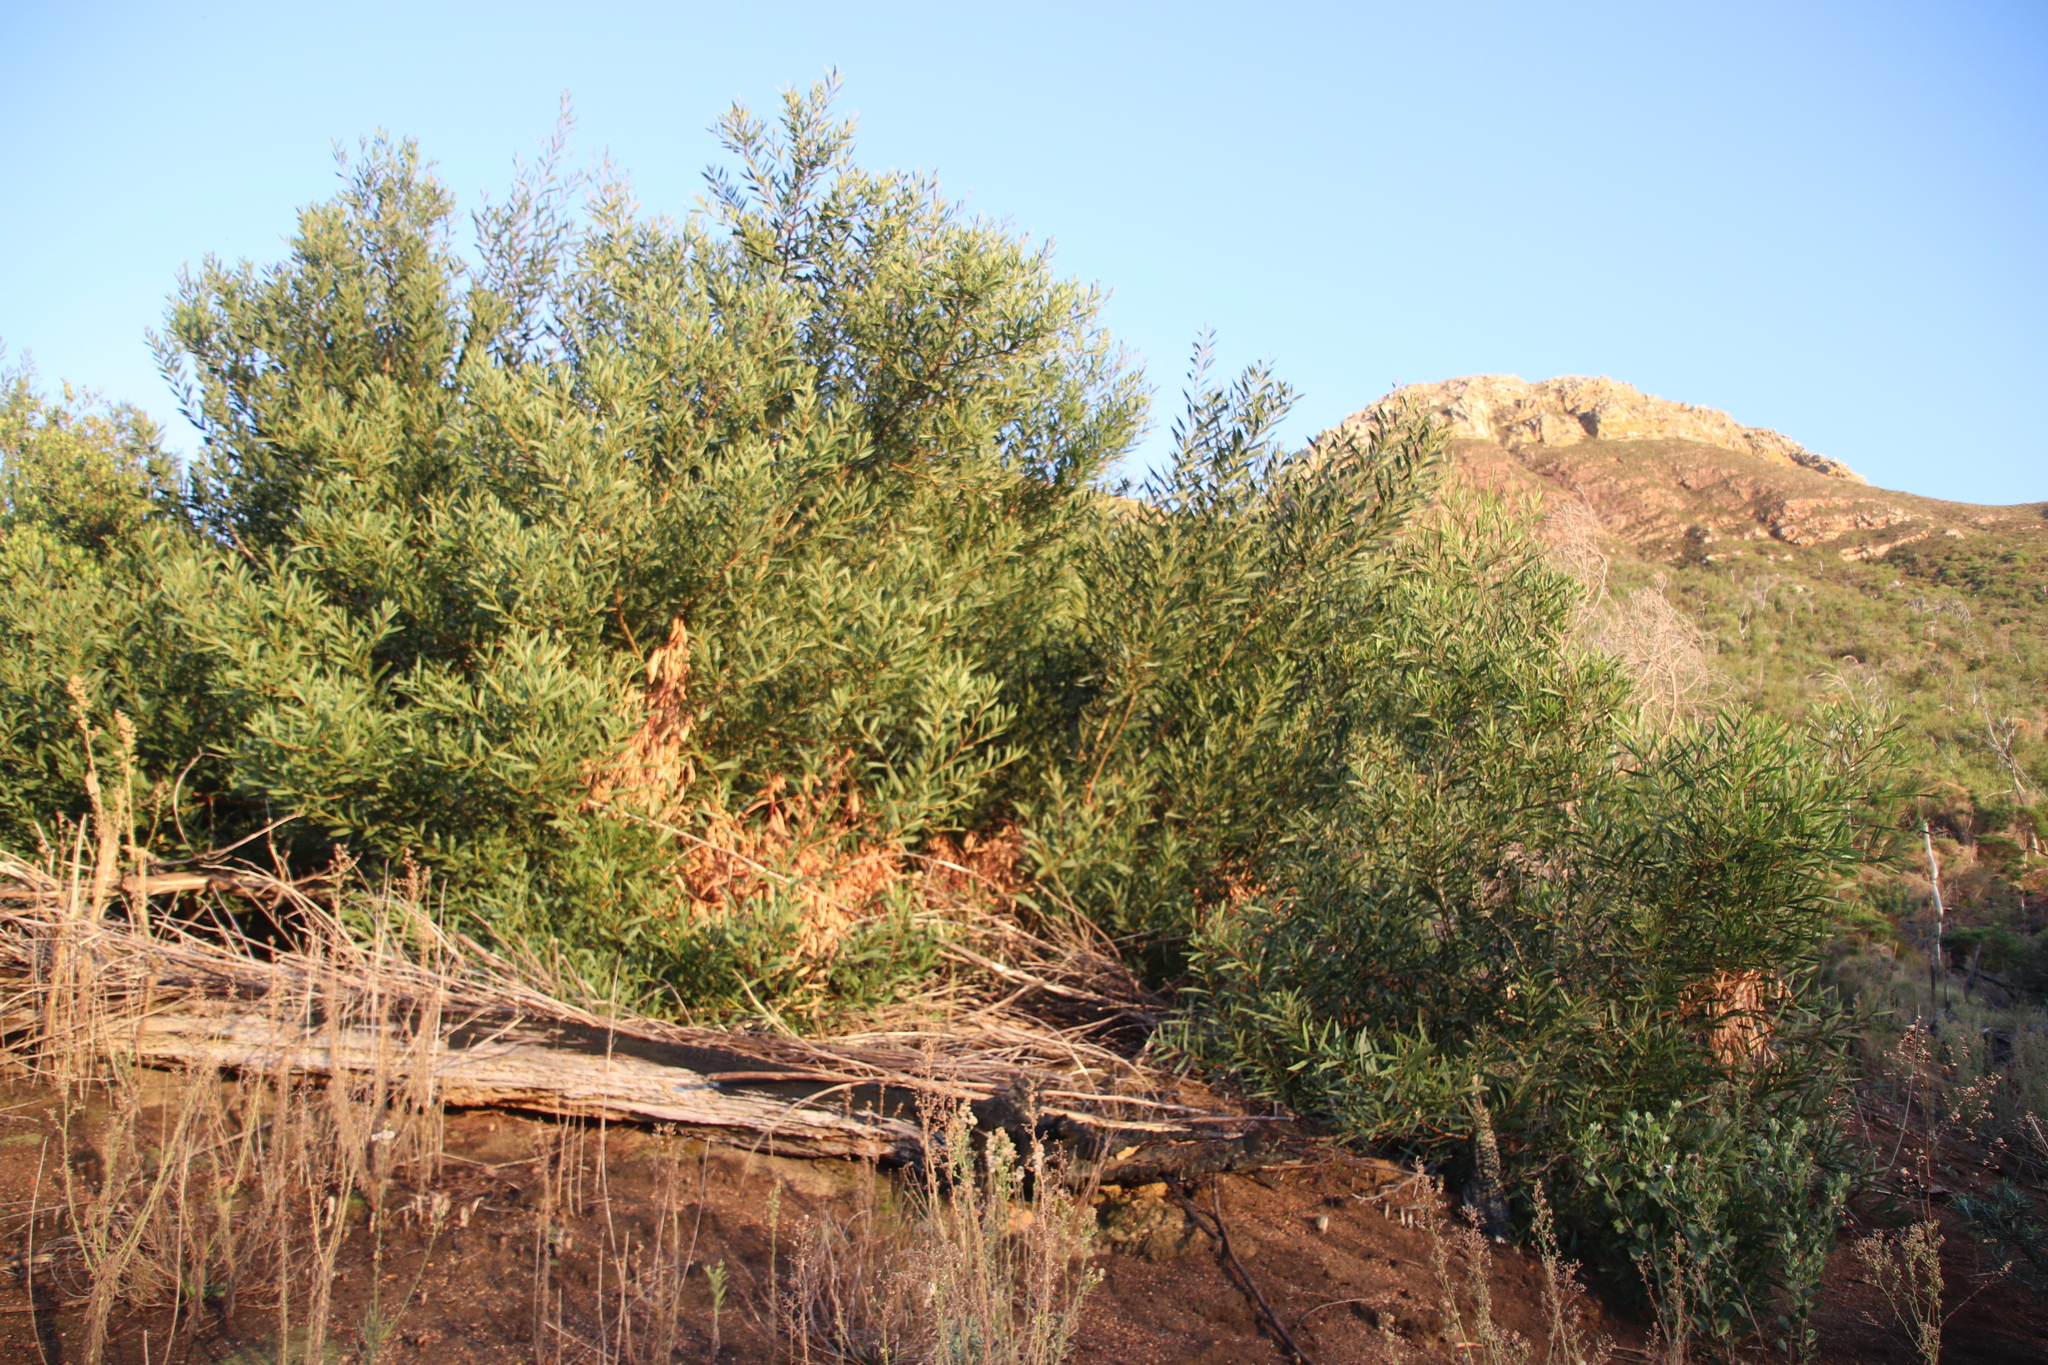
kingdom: Plantae
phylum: Tracheophyta
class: Magnoliopsida
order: Fabales
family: Fabaceae
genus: Acacia
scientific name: Acacia longifolia
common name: Sydney golden wattle
